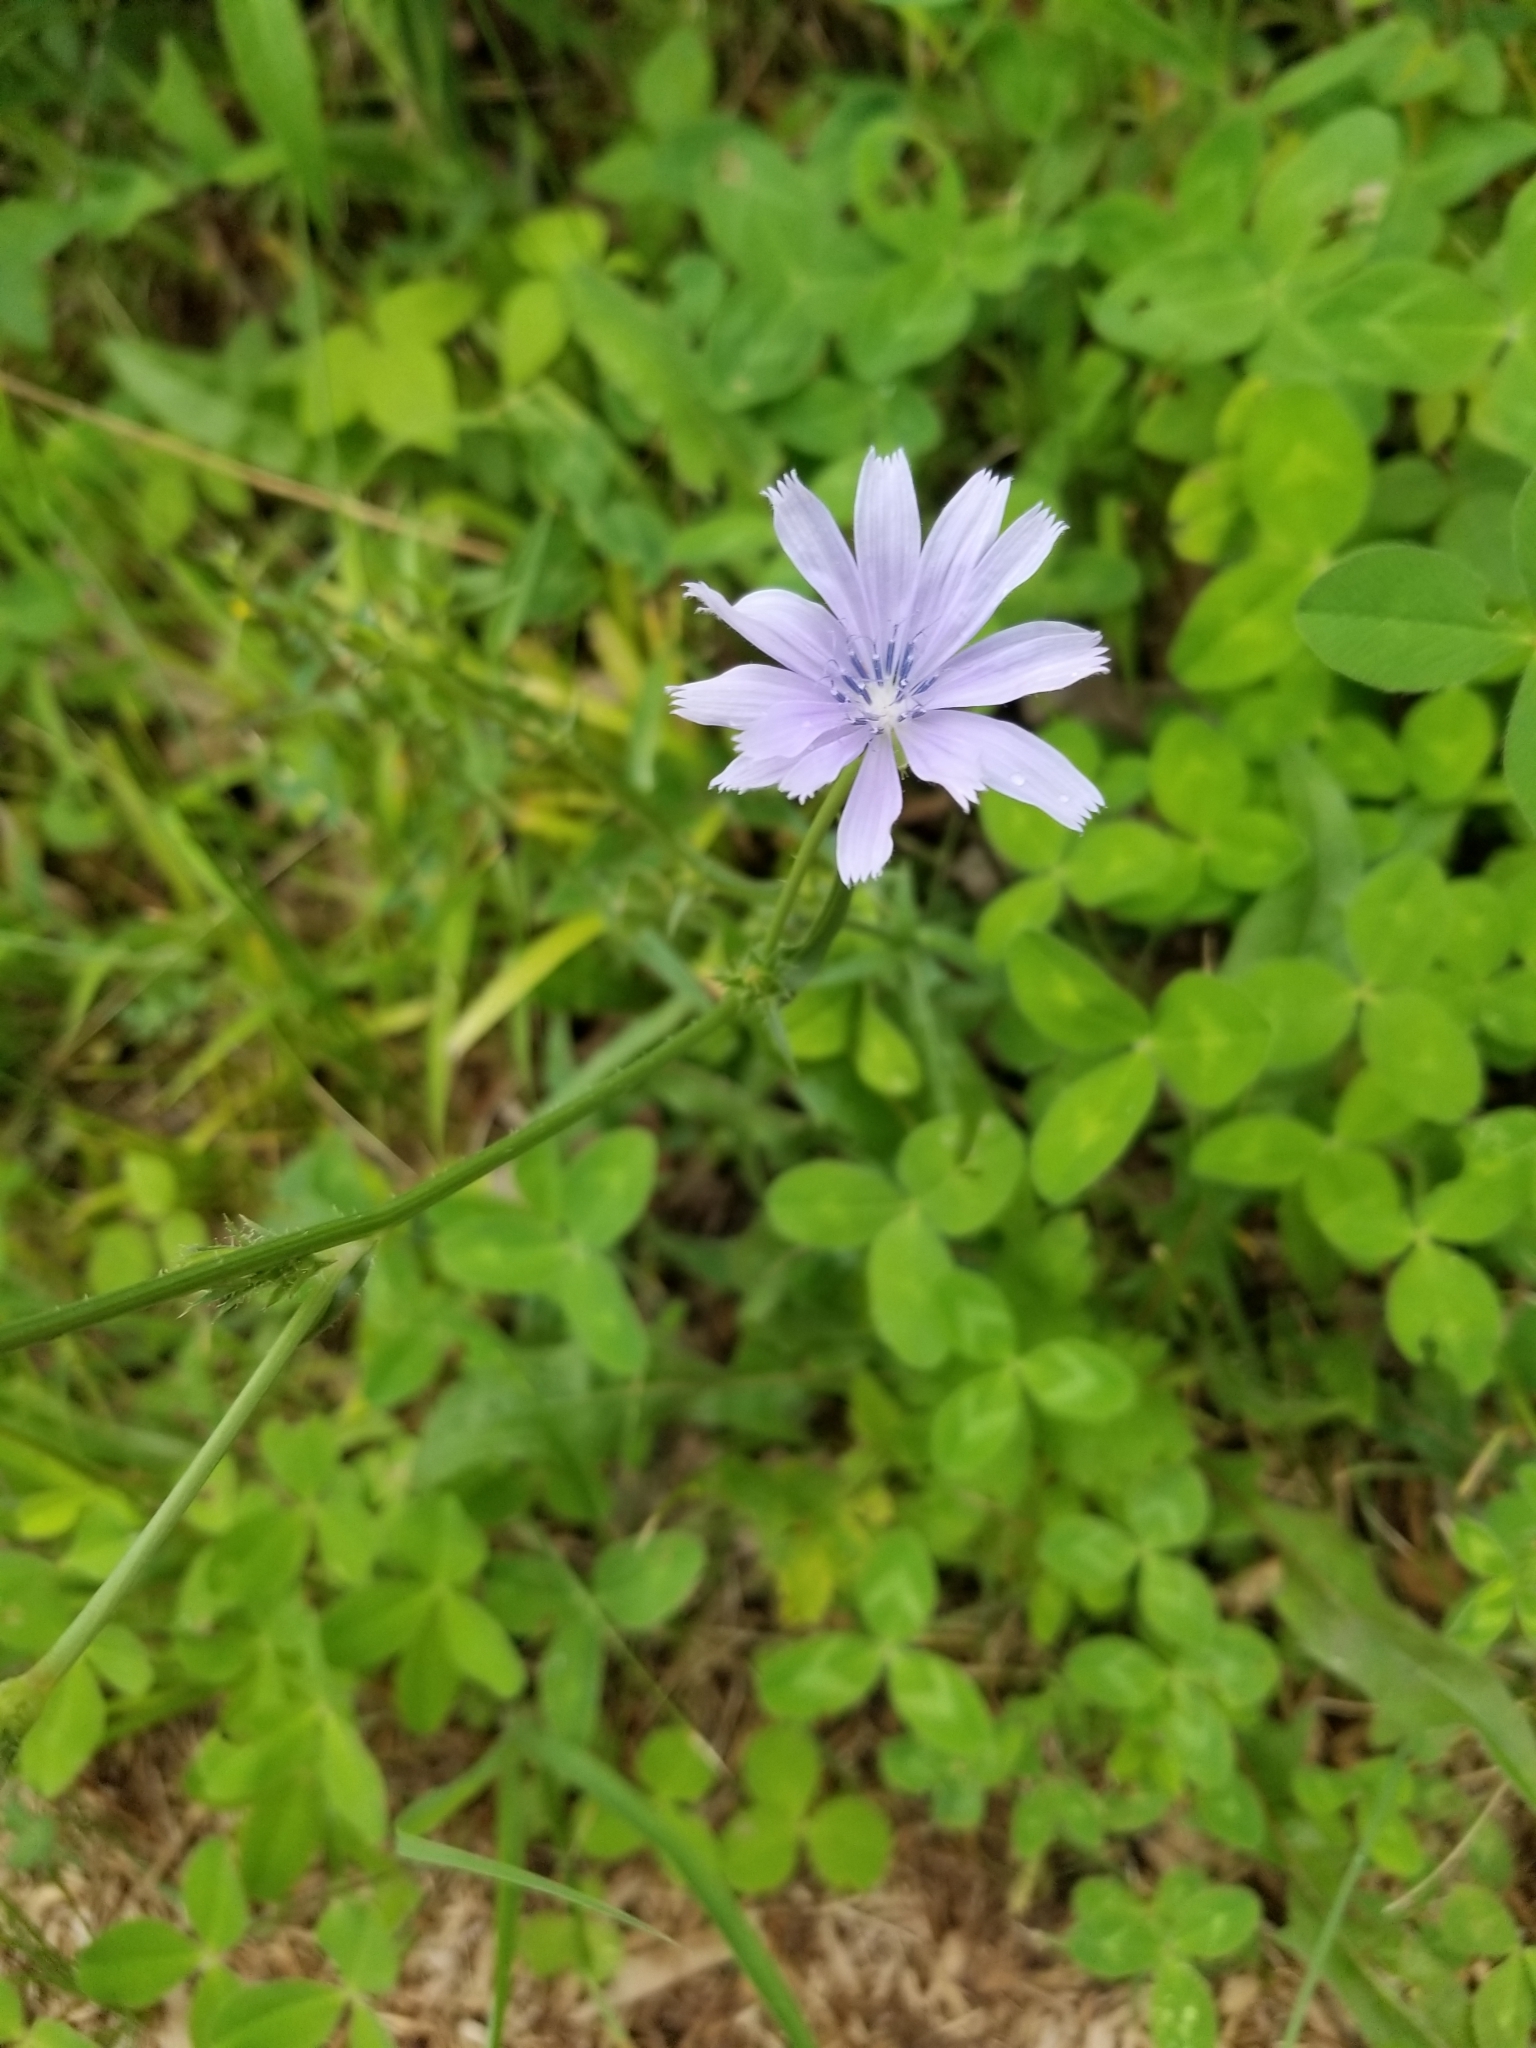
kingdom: Plantae
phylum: Tracheophyta
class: Magnoliopsida
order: Asterales
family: Asteraceae
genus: Cichorium
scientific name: Cichorium intybus
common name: Chicory
